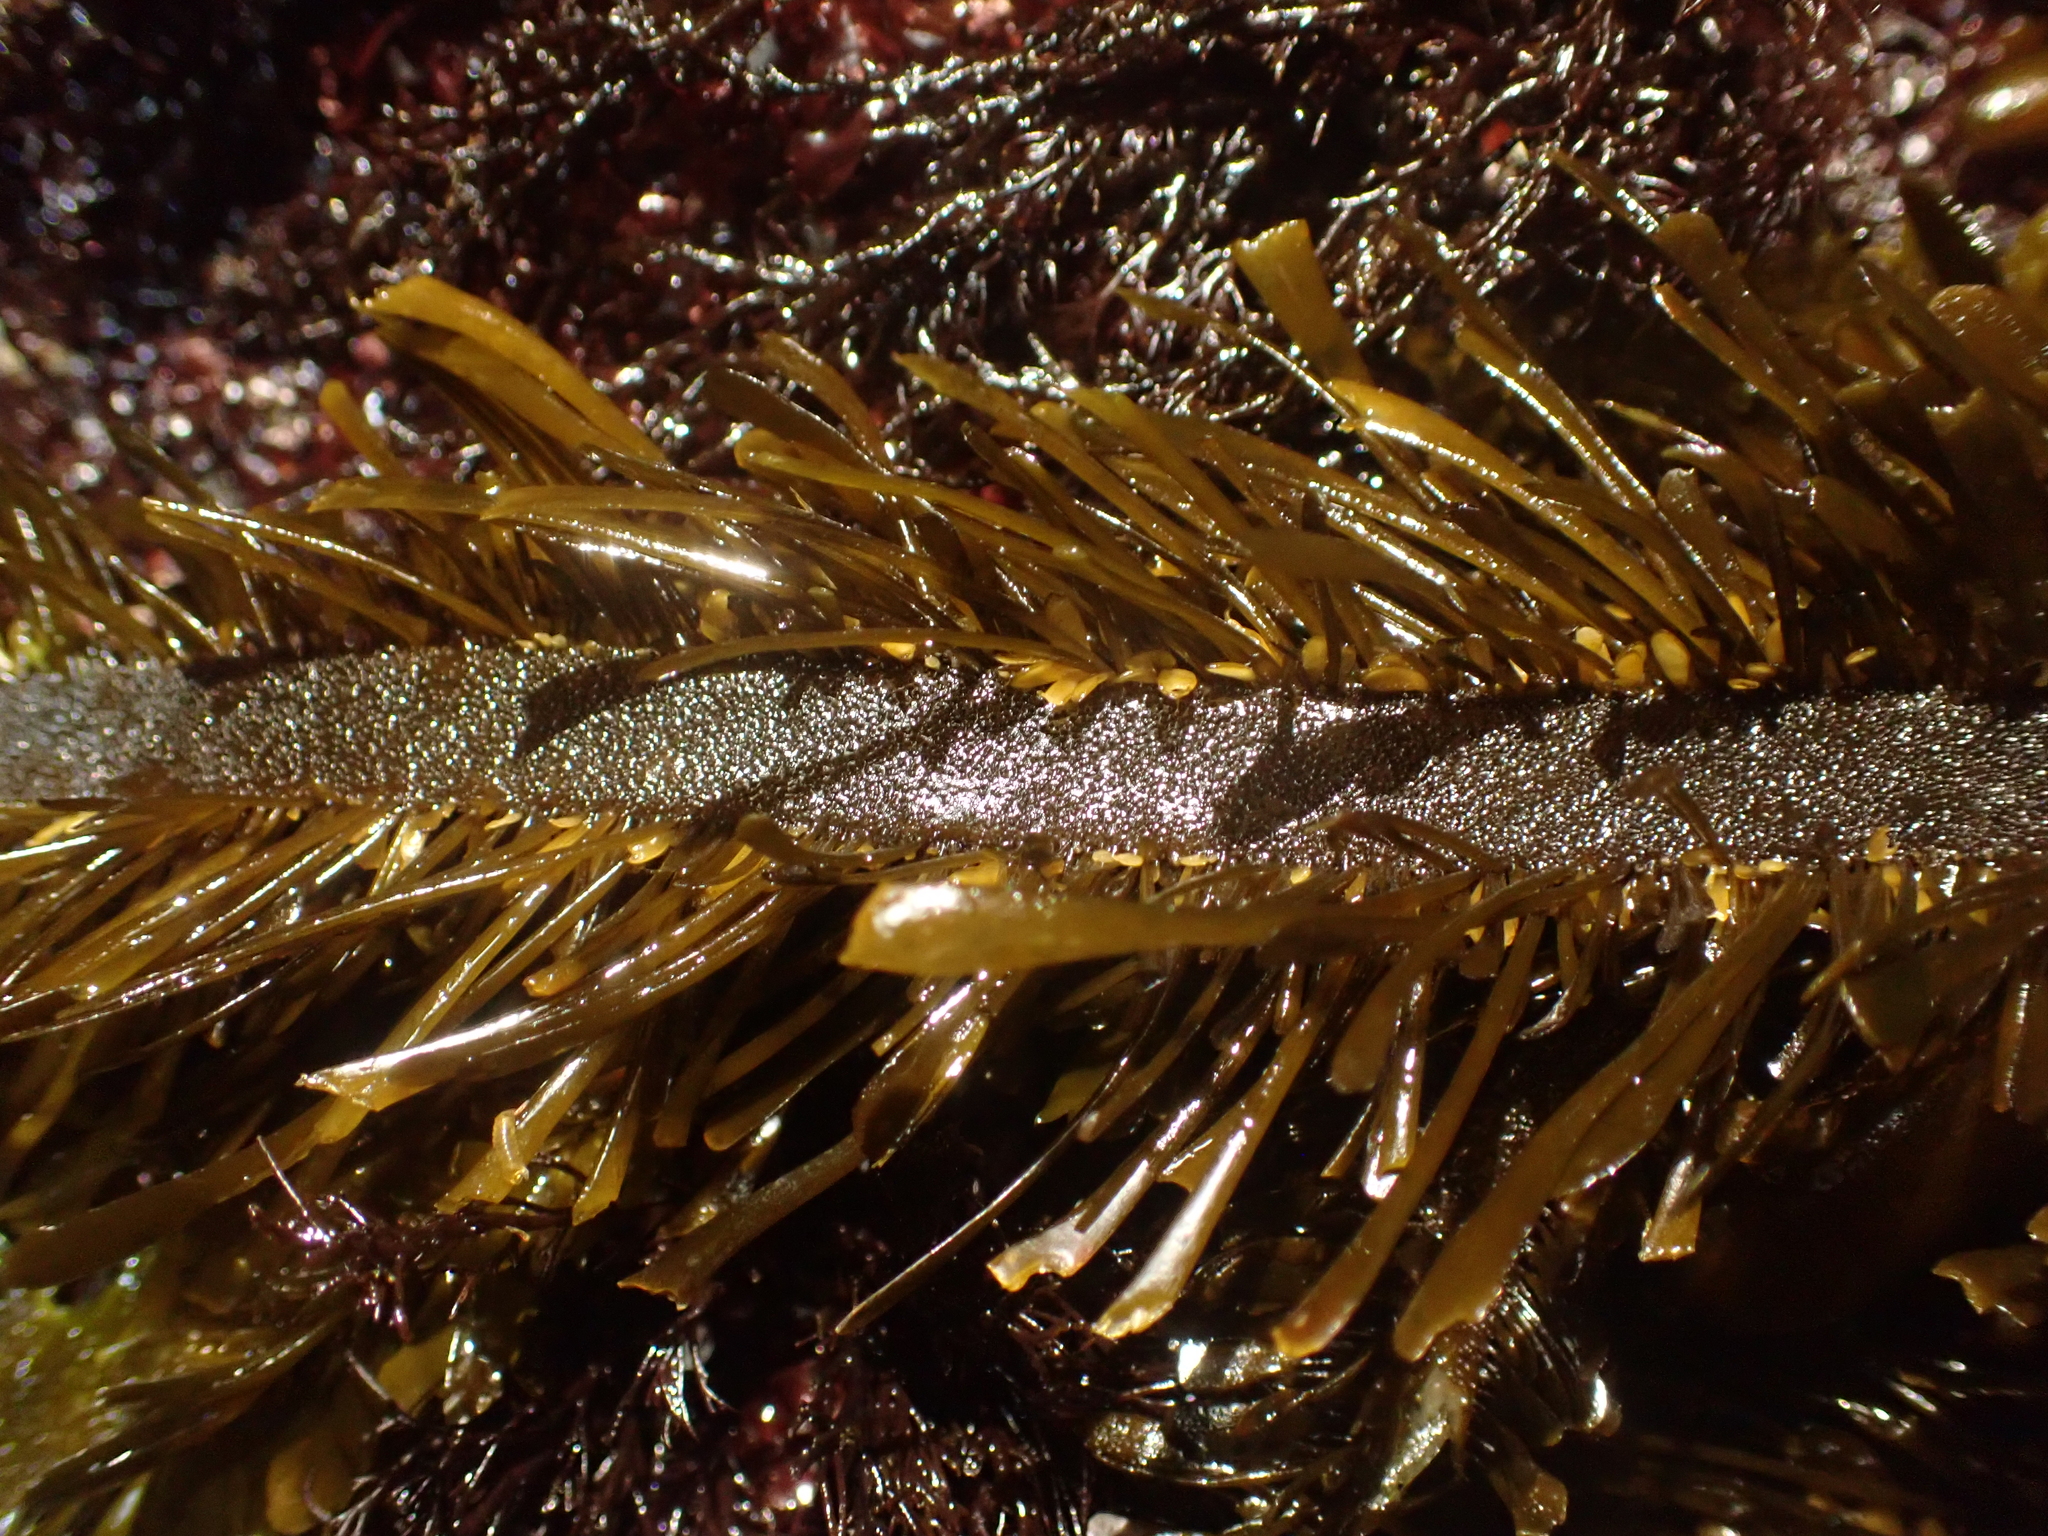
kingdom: Chromista
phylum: Ochrophyta
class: Phaeophyceae
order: Laminariales
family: Lessoniaceae
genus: Egregia
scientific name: Egregia menziesii
